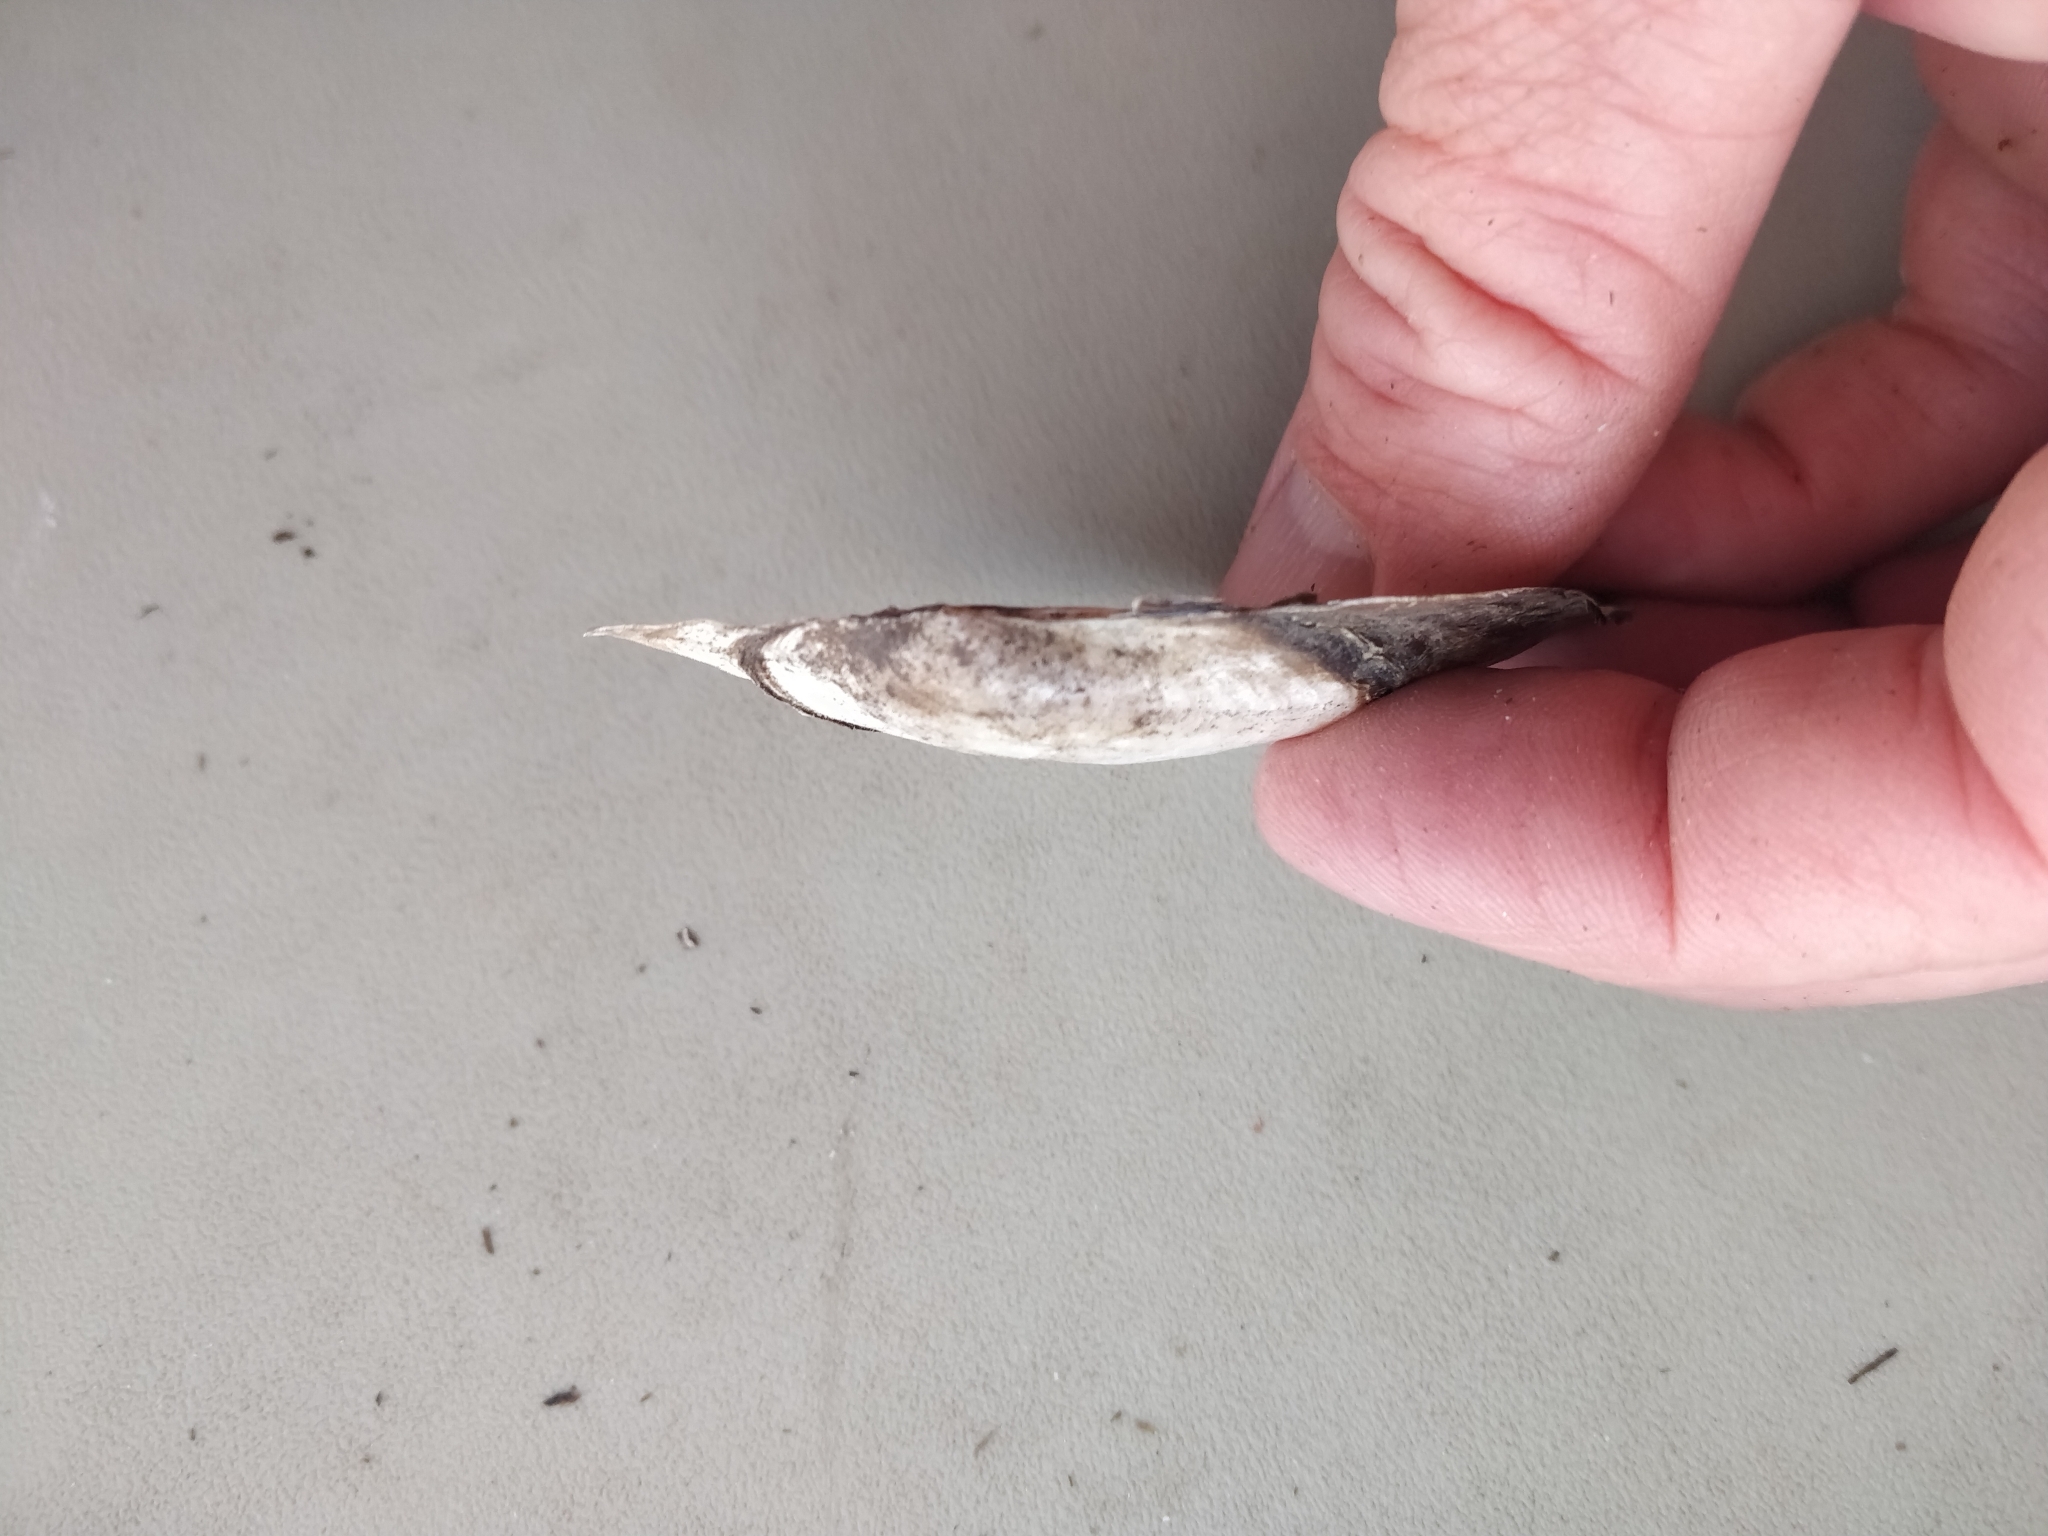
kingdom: Animalia
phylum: Mollusca
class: Bivalvia
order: Unionida
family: Unionidae
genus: Potamilus
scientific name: Potamilus ohiensis
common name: Pink papershell
